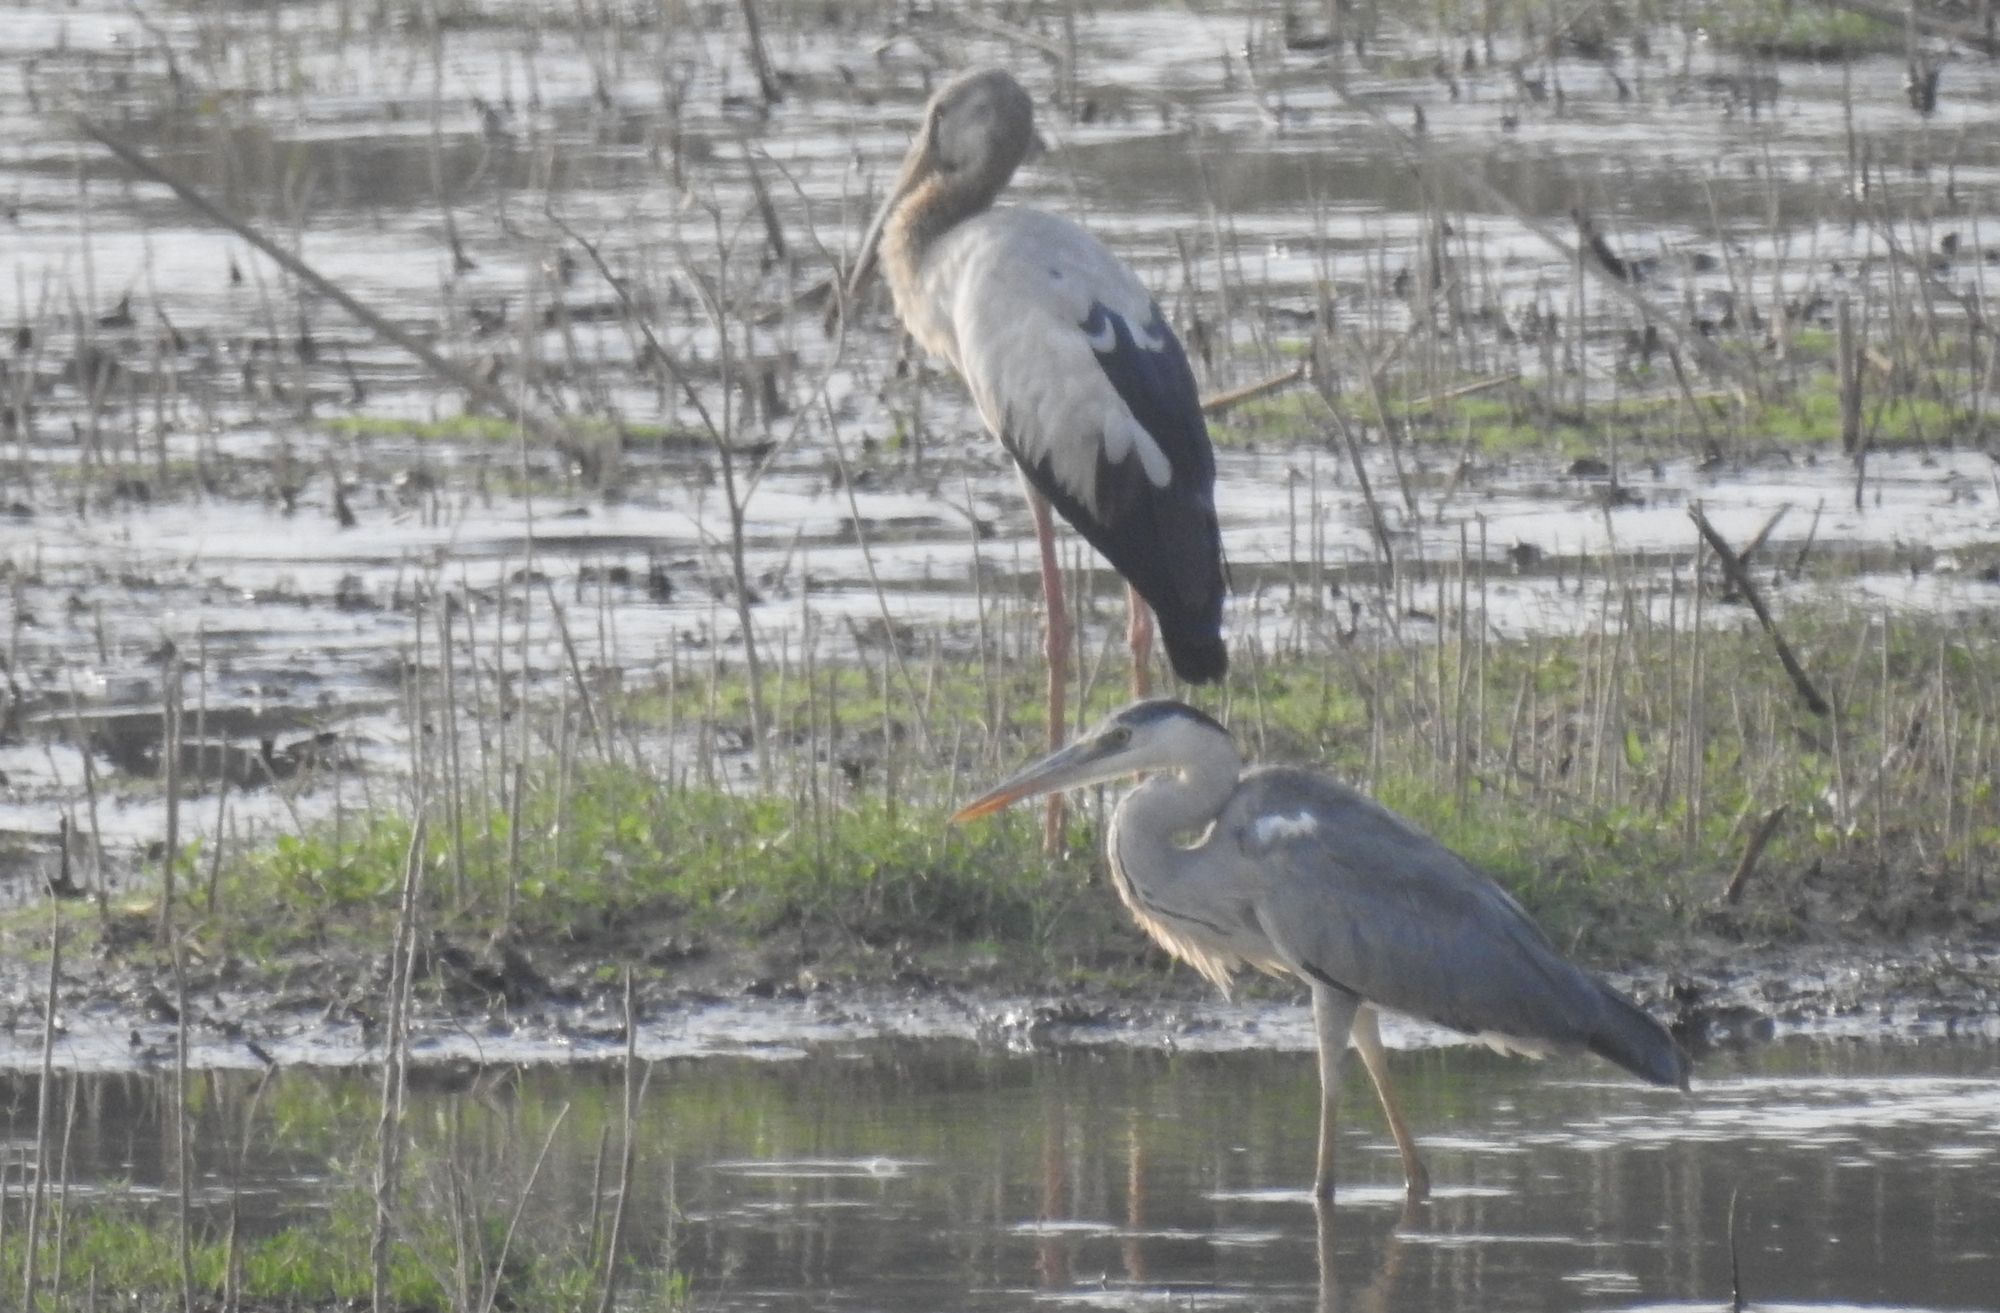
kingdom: Animalia
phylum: Chordata
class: Aves
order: Pelecaniformes
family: Ardeidae
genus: Ardea
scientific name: Ardea cinerea
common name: Grey heron
